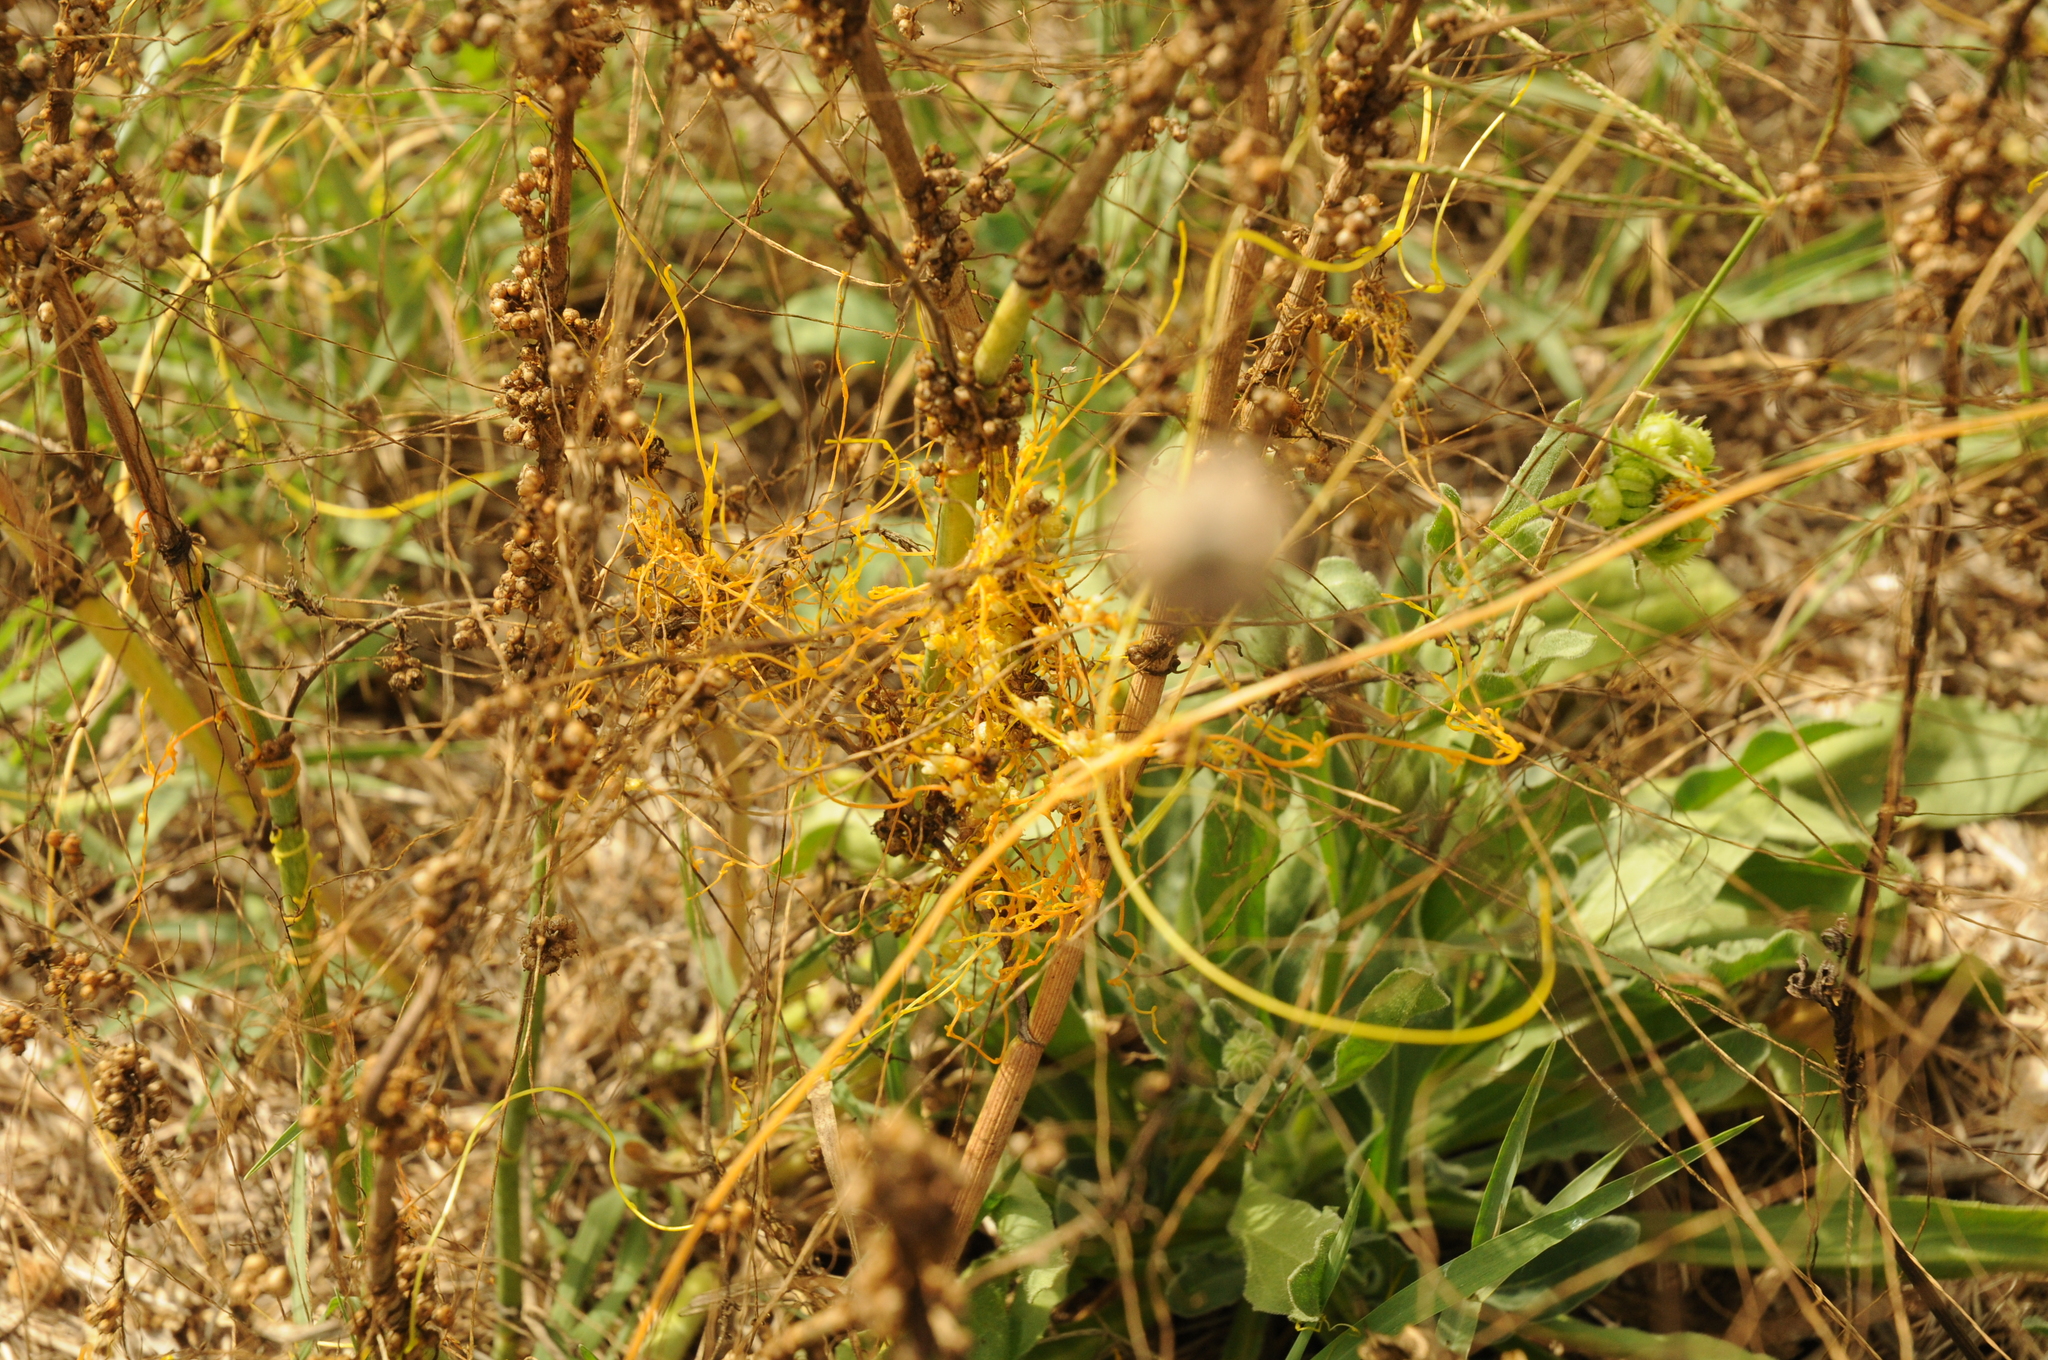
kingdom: Plantae
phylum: Tracheophyta
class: Magnoliopsida
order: Solanales
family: Convolvulaceae
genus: Cuscuta
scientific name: Cuscuta campestris
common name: Yellow dodder
